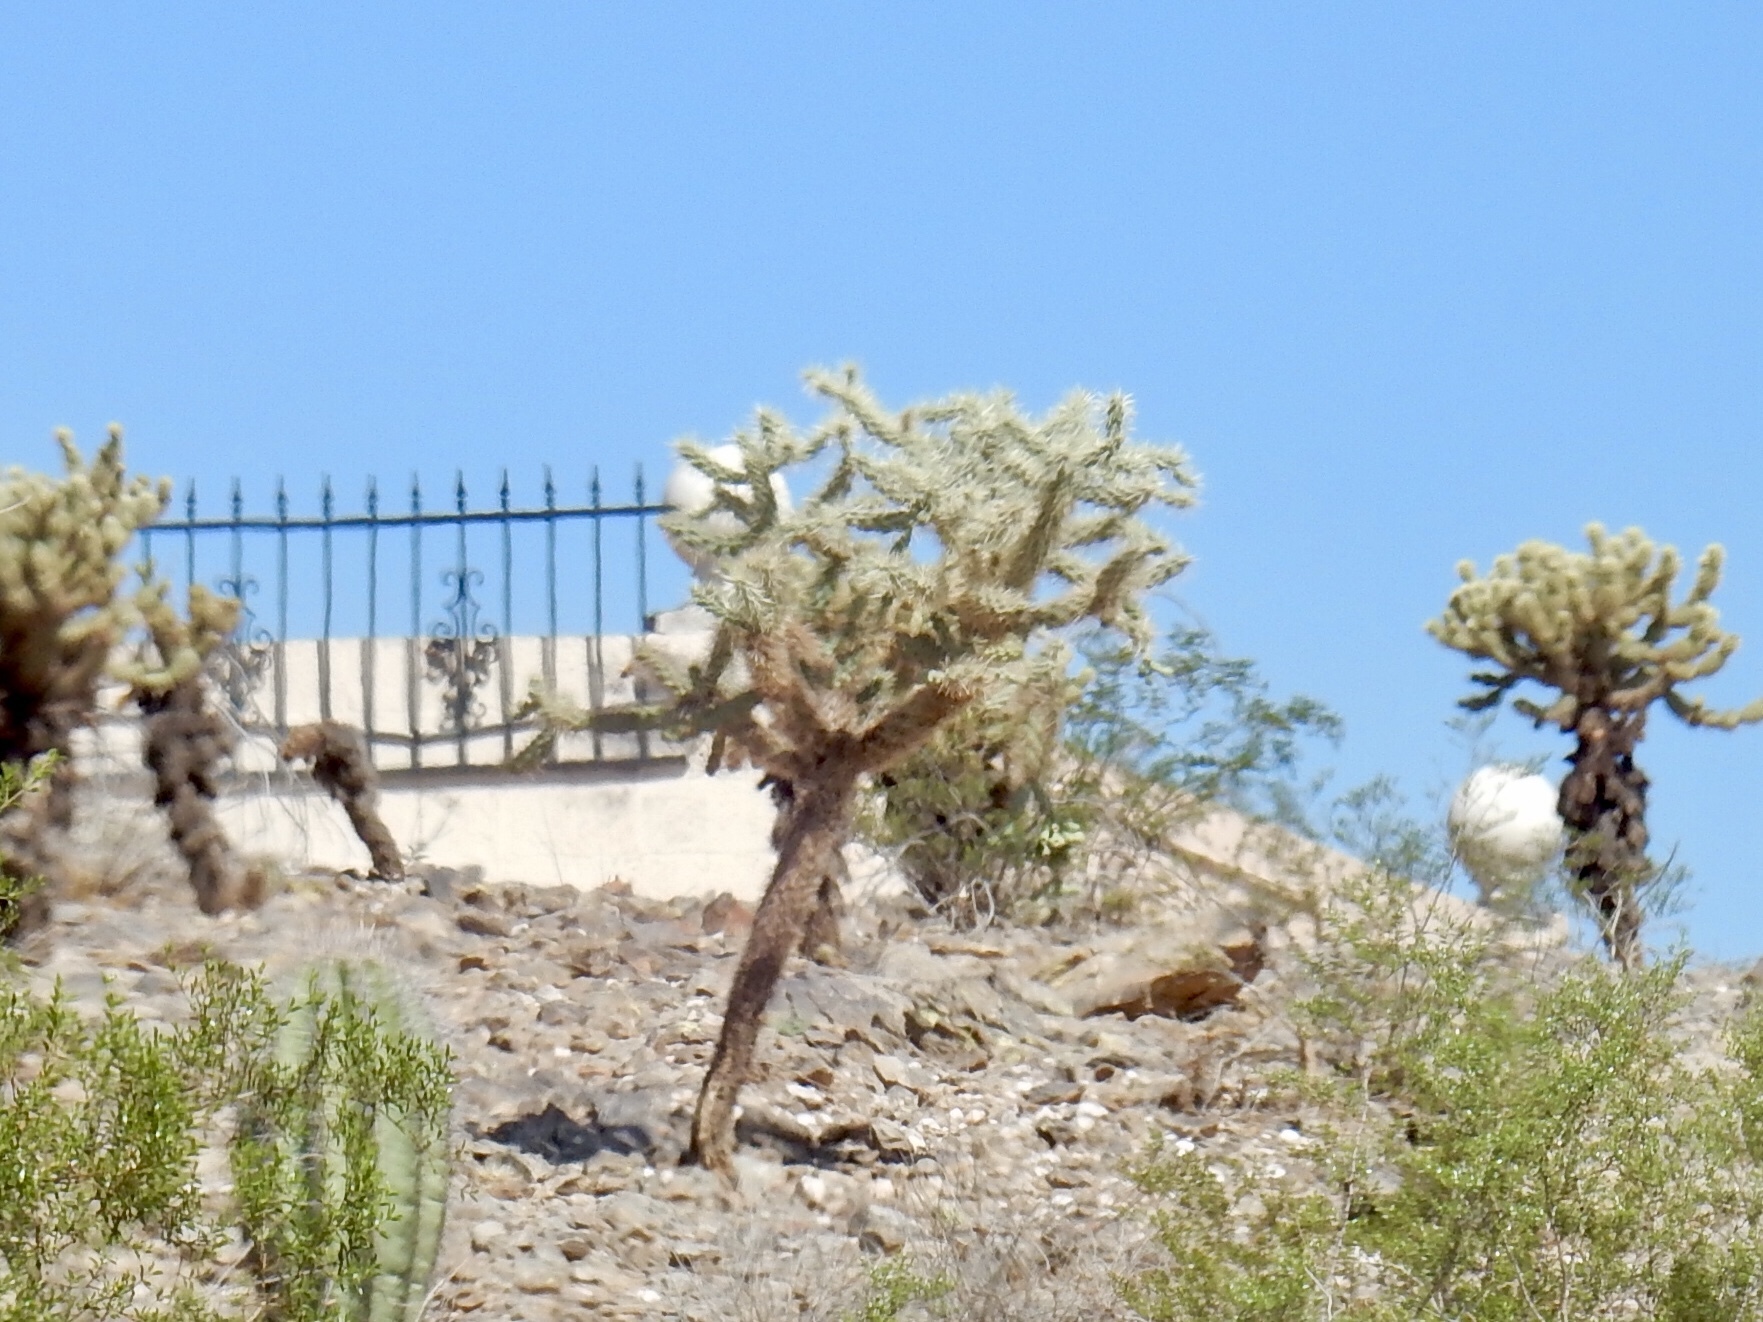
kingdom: Plantae
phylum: Tracheophyta
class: Magnoliopsida
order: Caryophyllales
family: Cactaceae
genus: Cylindropuntia
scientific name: Cylindropuntia fulgida
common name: Jumping cholla
